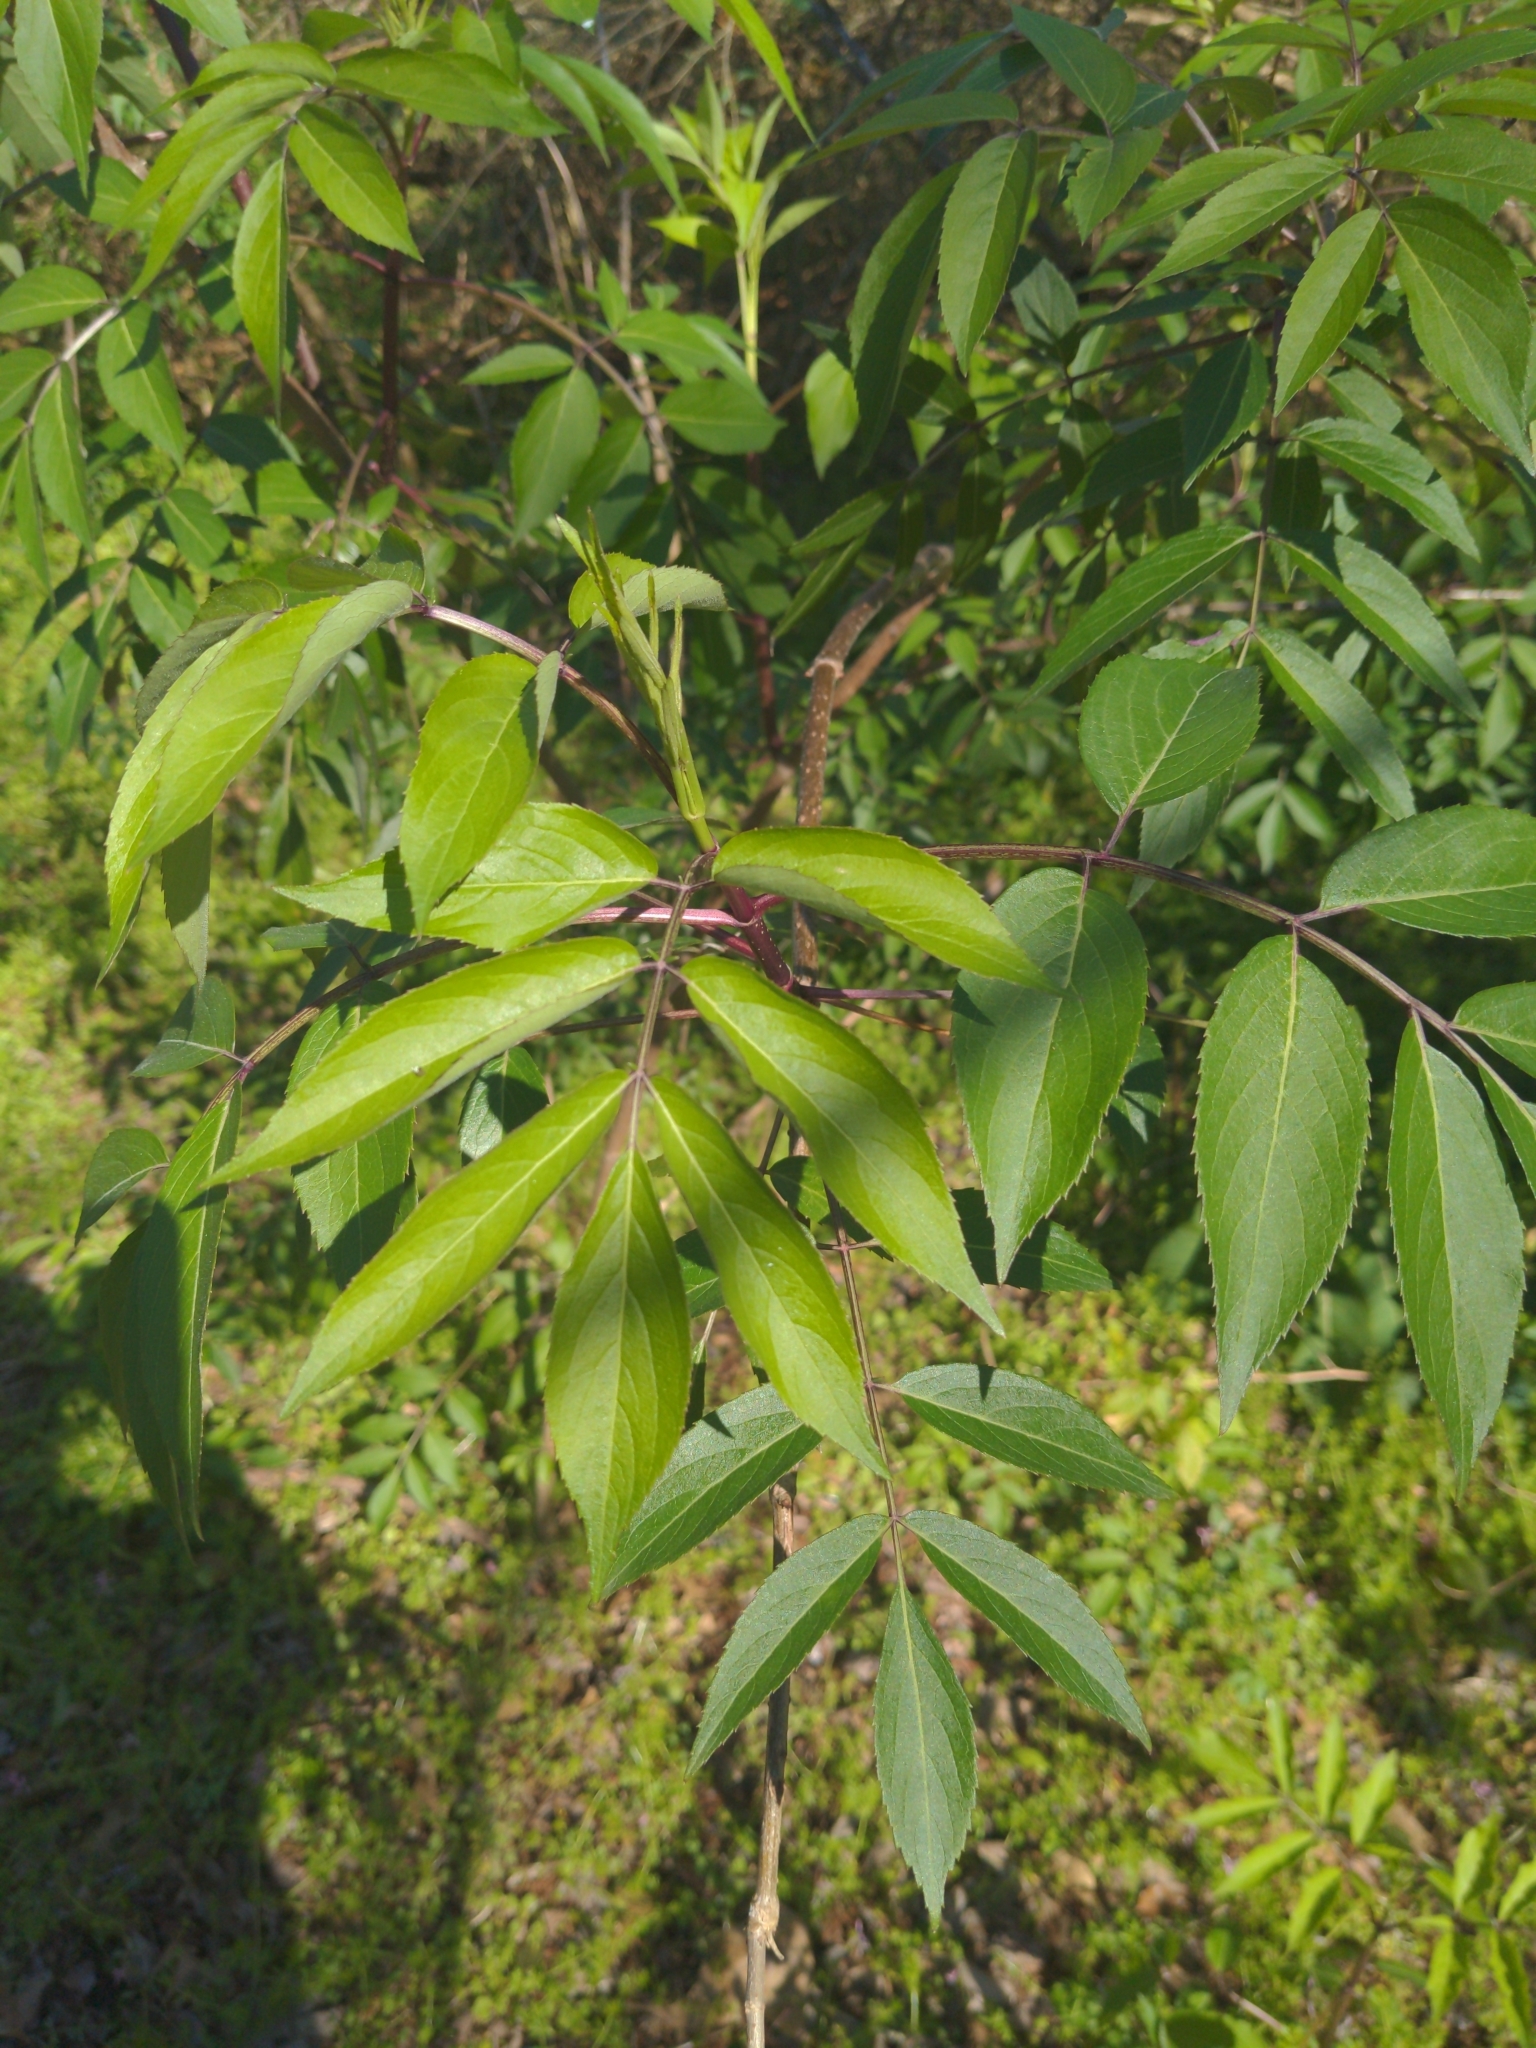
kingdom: Plantae
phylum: Tracheophyta
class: Magnoliopsida
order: Dipsacales
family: Viburnaceae
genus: Sambucus
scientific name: Sambucus canadensis
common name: American elder
